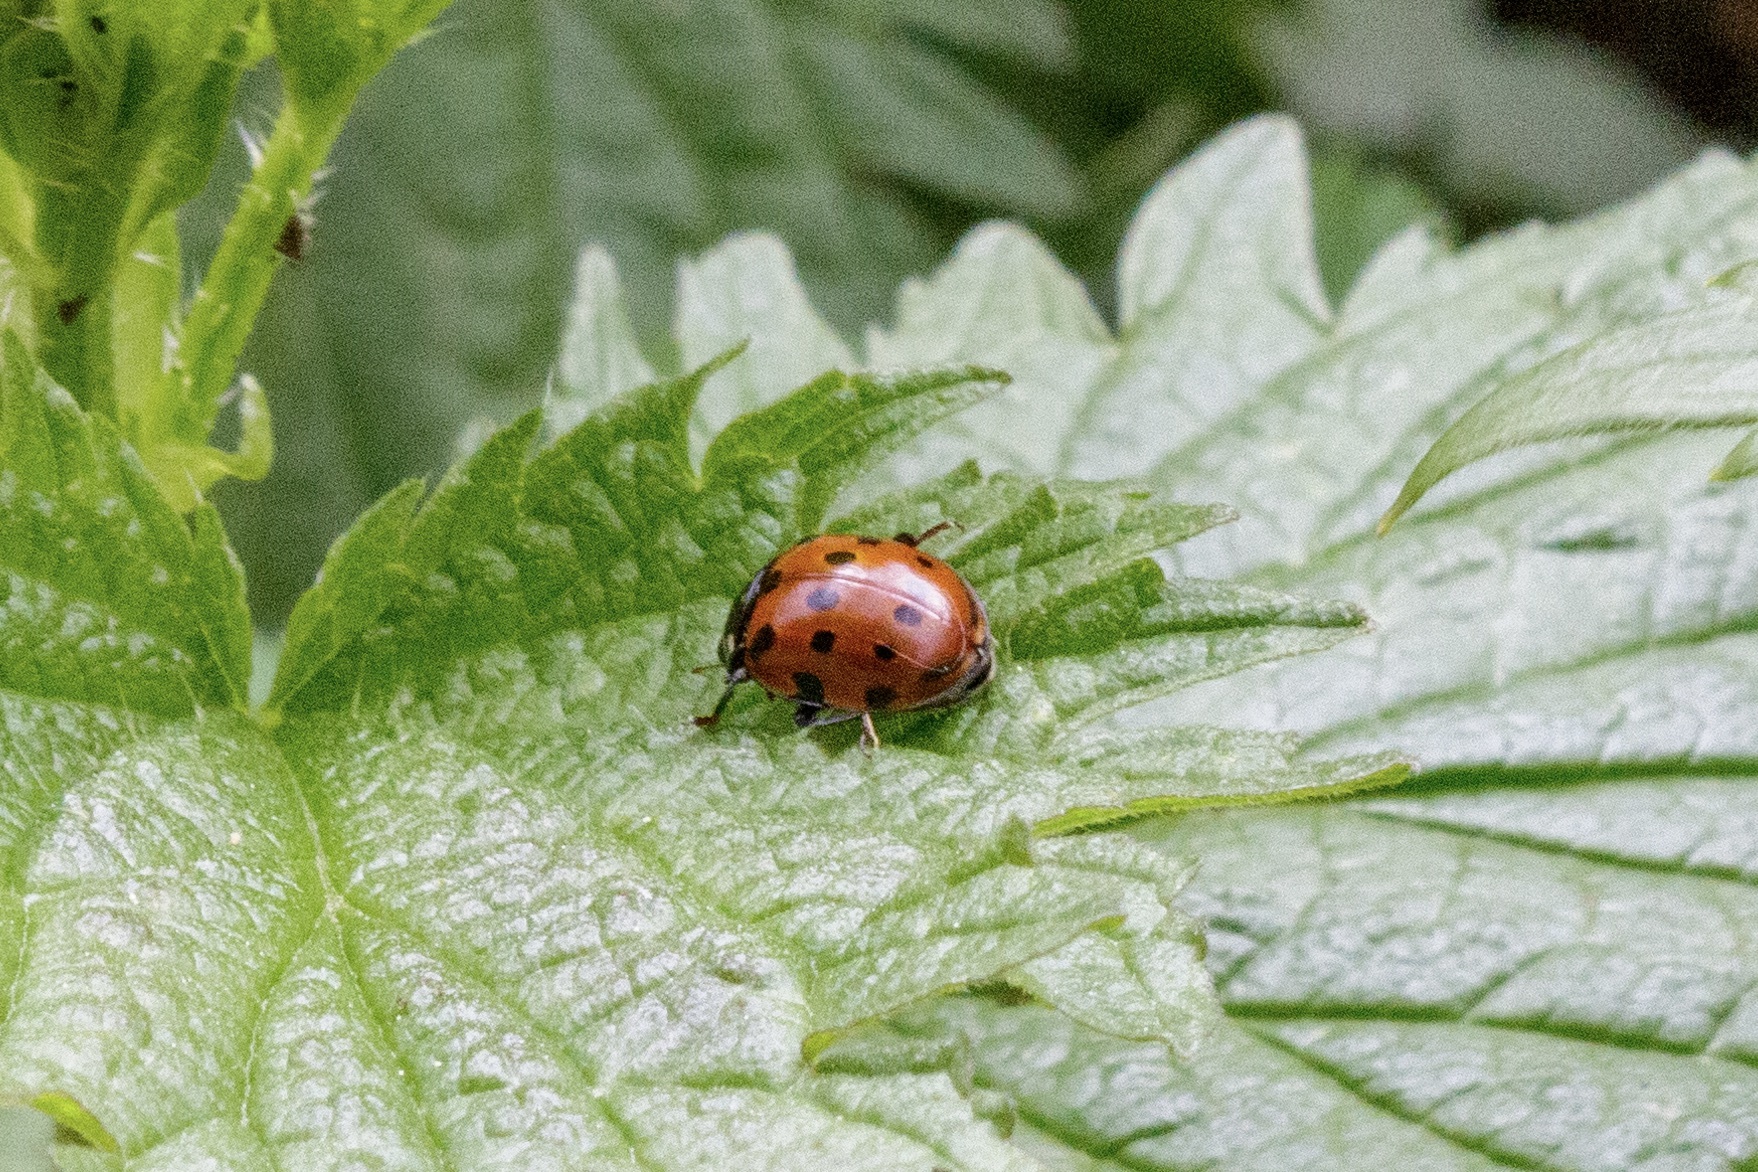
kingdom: Animalia
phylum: Arthropoda
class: Insecta
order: Coleoptera
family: Coccinellidae
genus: Harmonia
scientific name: Harmonia axyridis
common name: Harlequin ladybird
